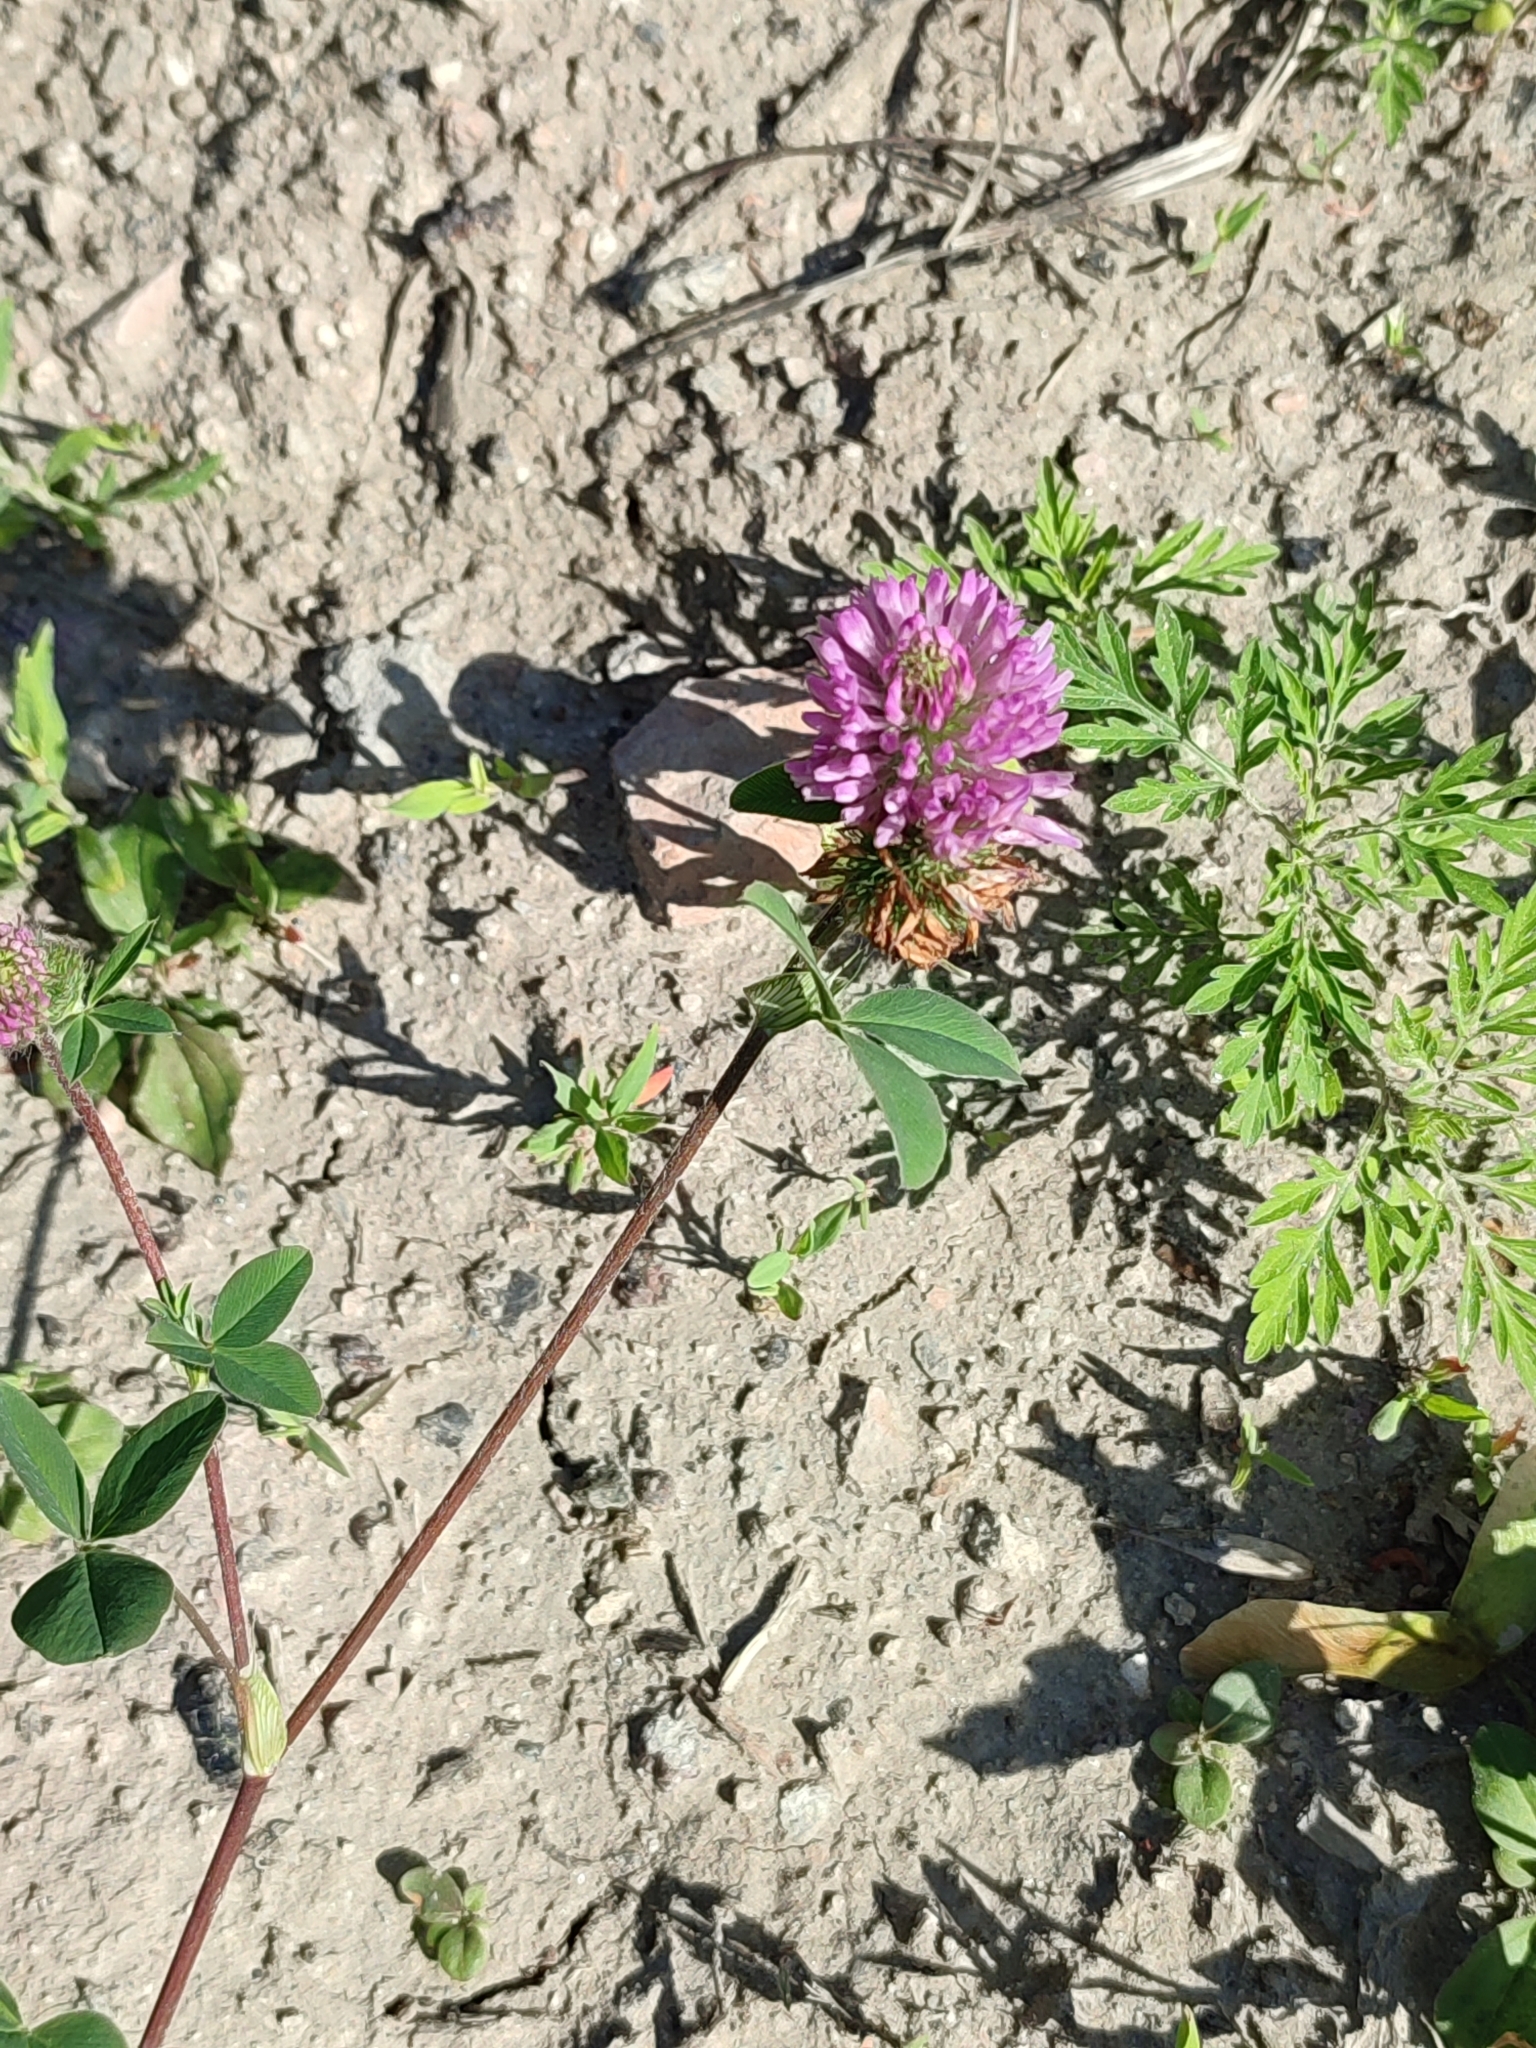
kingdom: Plantae
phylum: Tracheophyta
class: Magnoliopsida
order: Fabales
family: Fabaceae
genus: Trifolium
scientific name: Trifolium pratense
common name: Red clover
